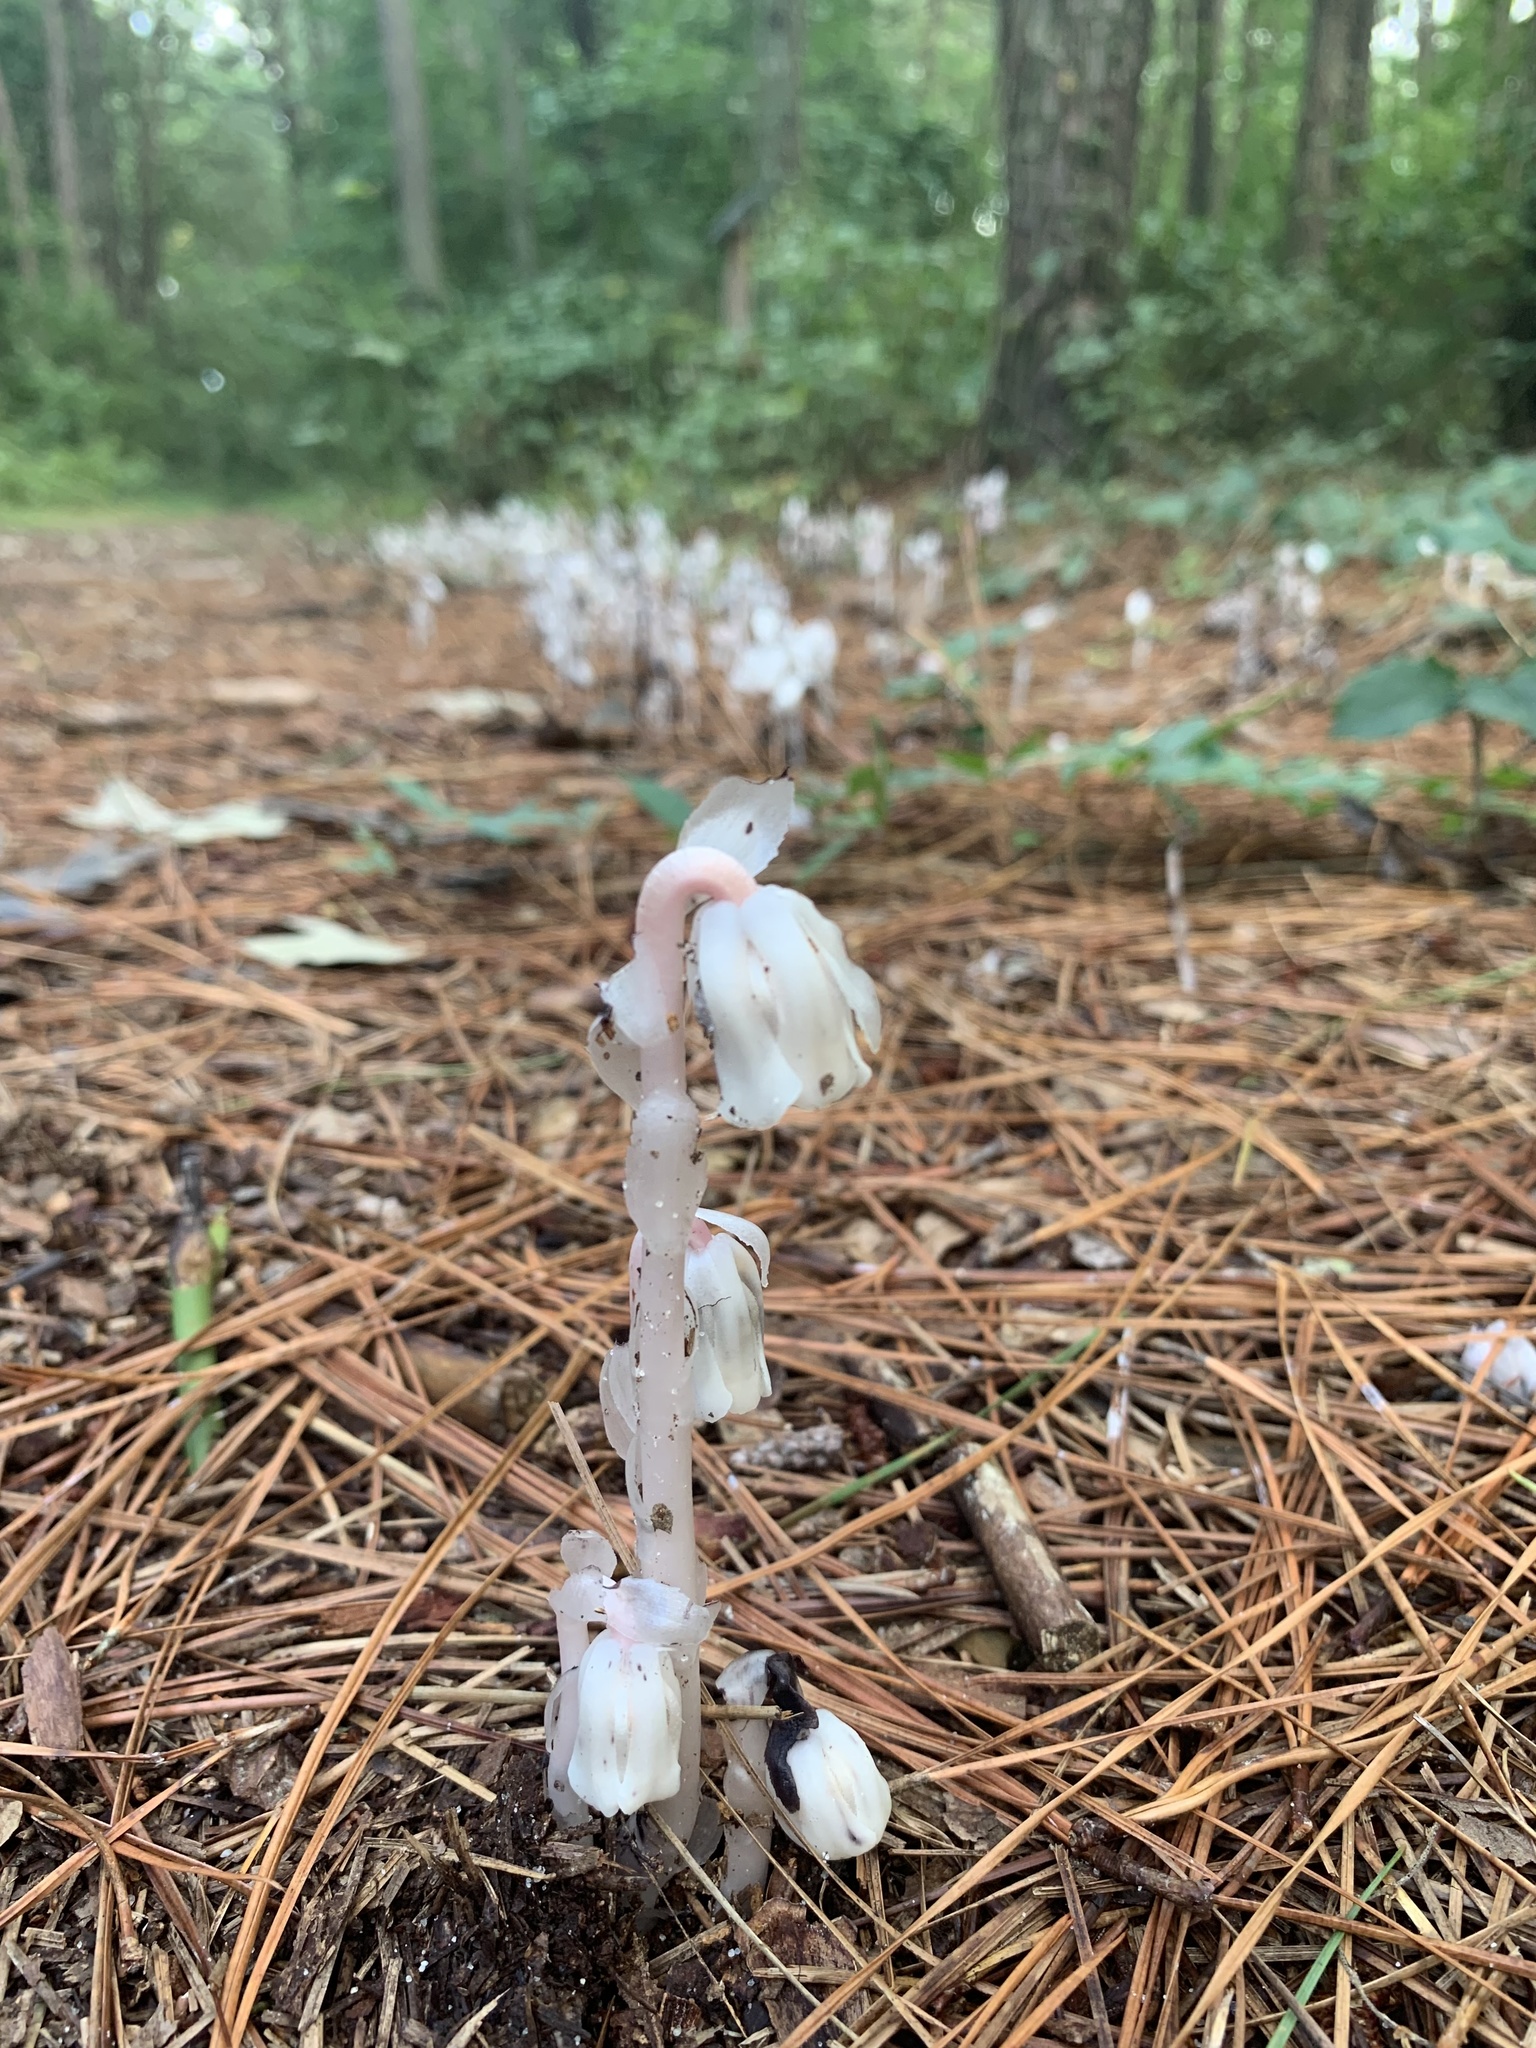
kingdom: Plantae
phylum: Tracheophyta
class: Magnoliopsida
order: Ericales
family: Ericaceae
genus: Monotropa
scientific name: Monotropa uniflora
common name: Convulsion root
